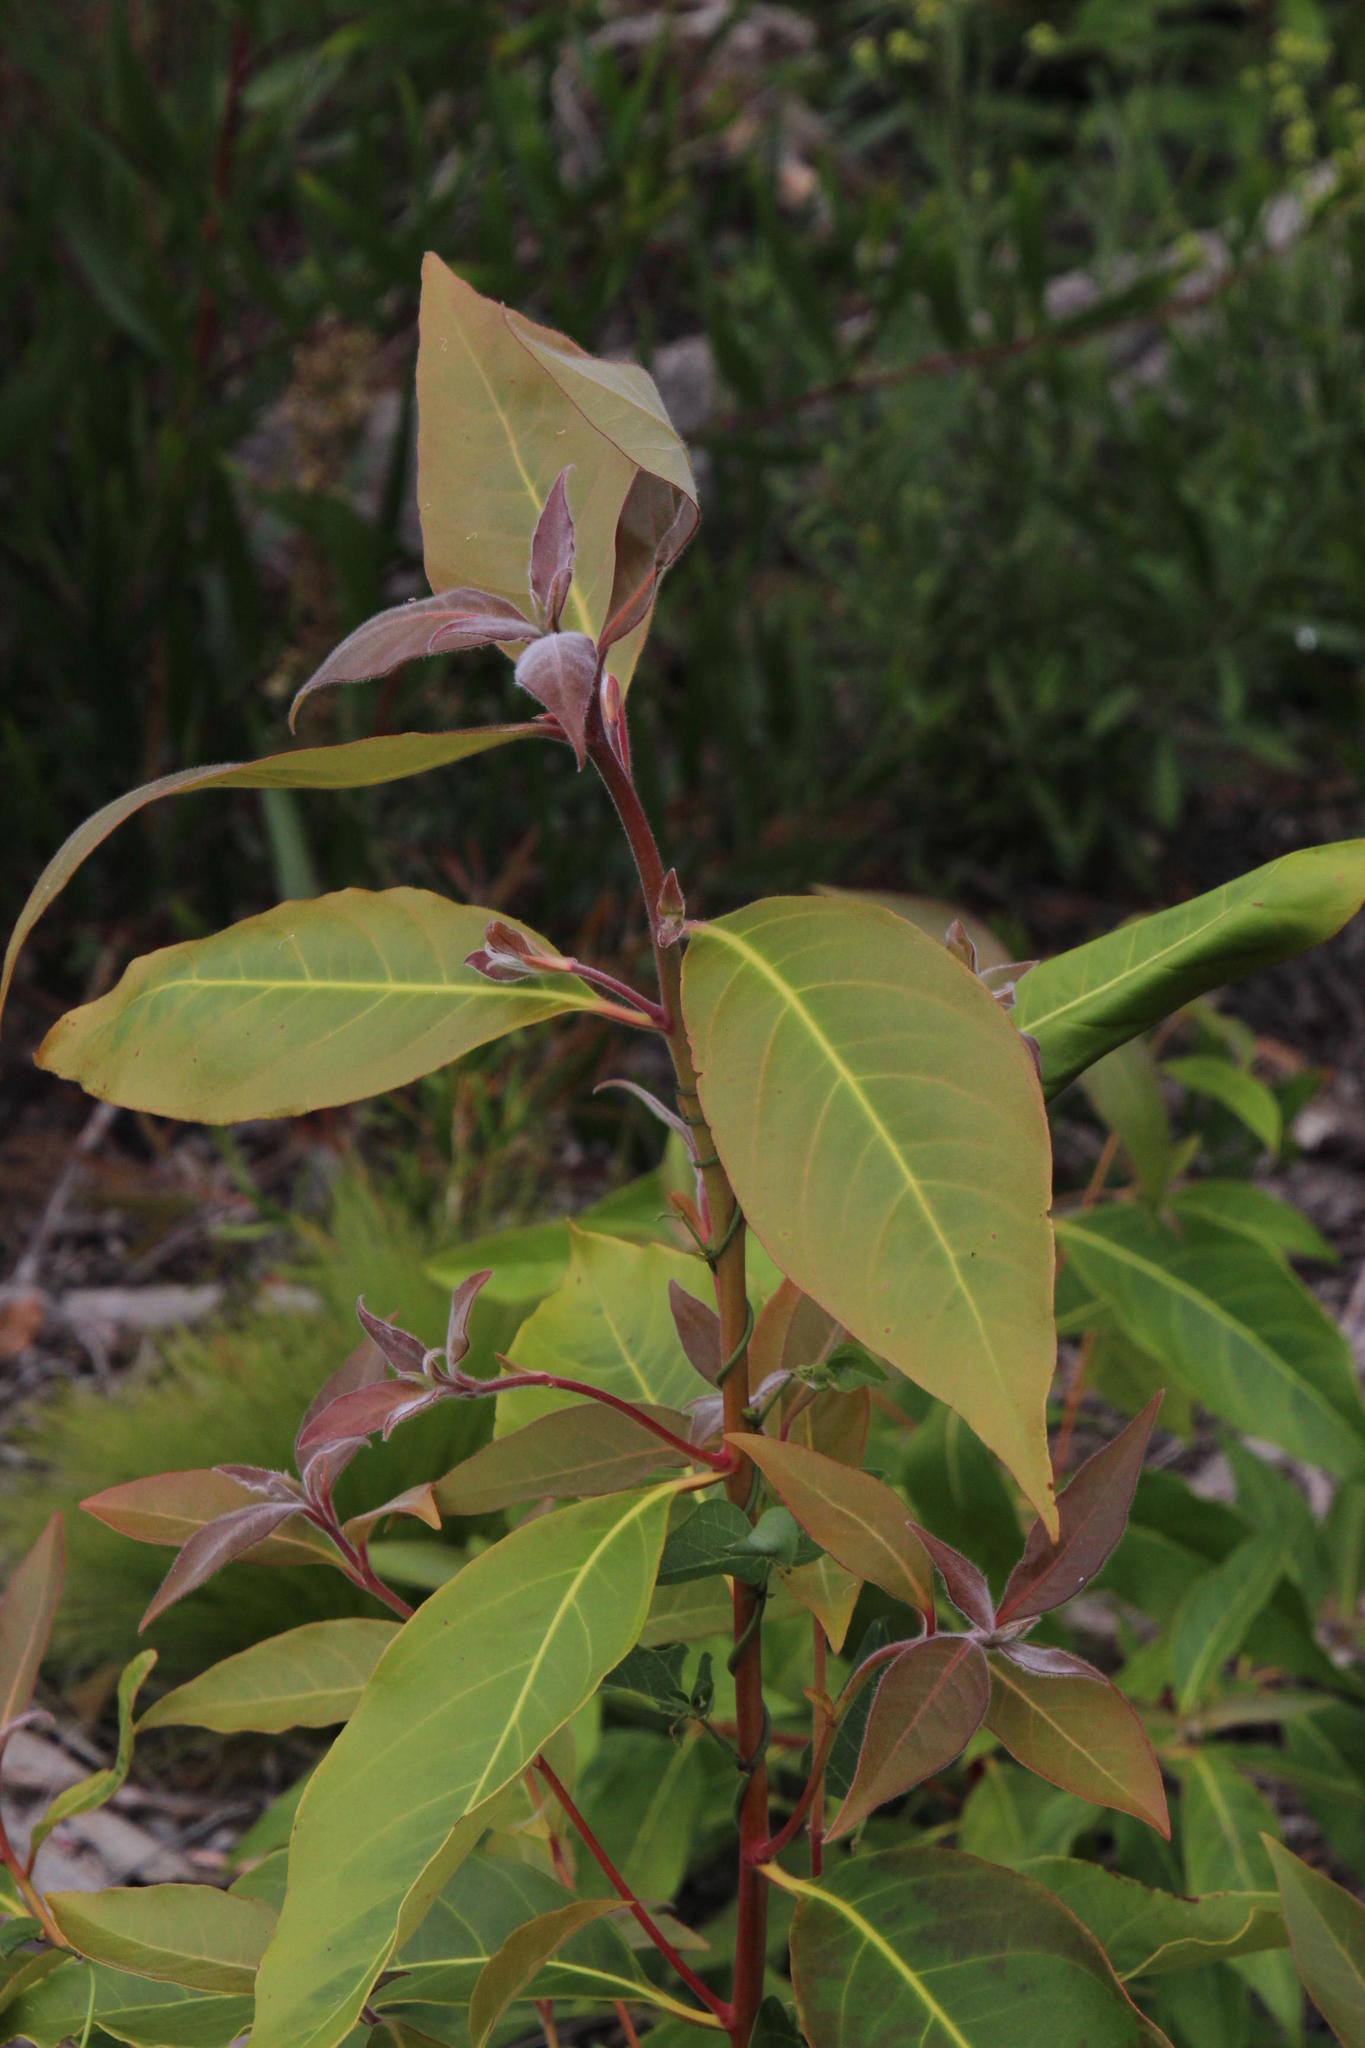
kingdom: Plantae
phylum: Tracheophyta
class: Magnoliopsida
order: Myrtales
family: Myrtaceae
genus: Syncarpia
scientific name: Syncarpia glomulifera
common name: Turpentine tree
